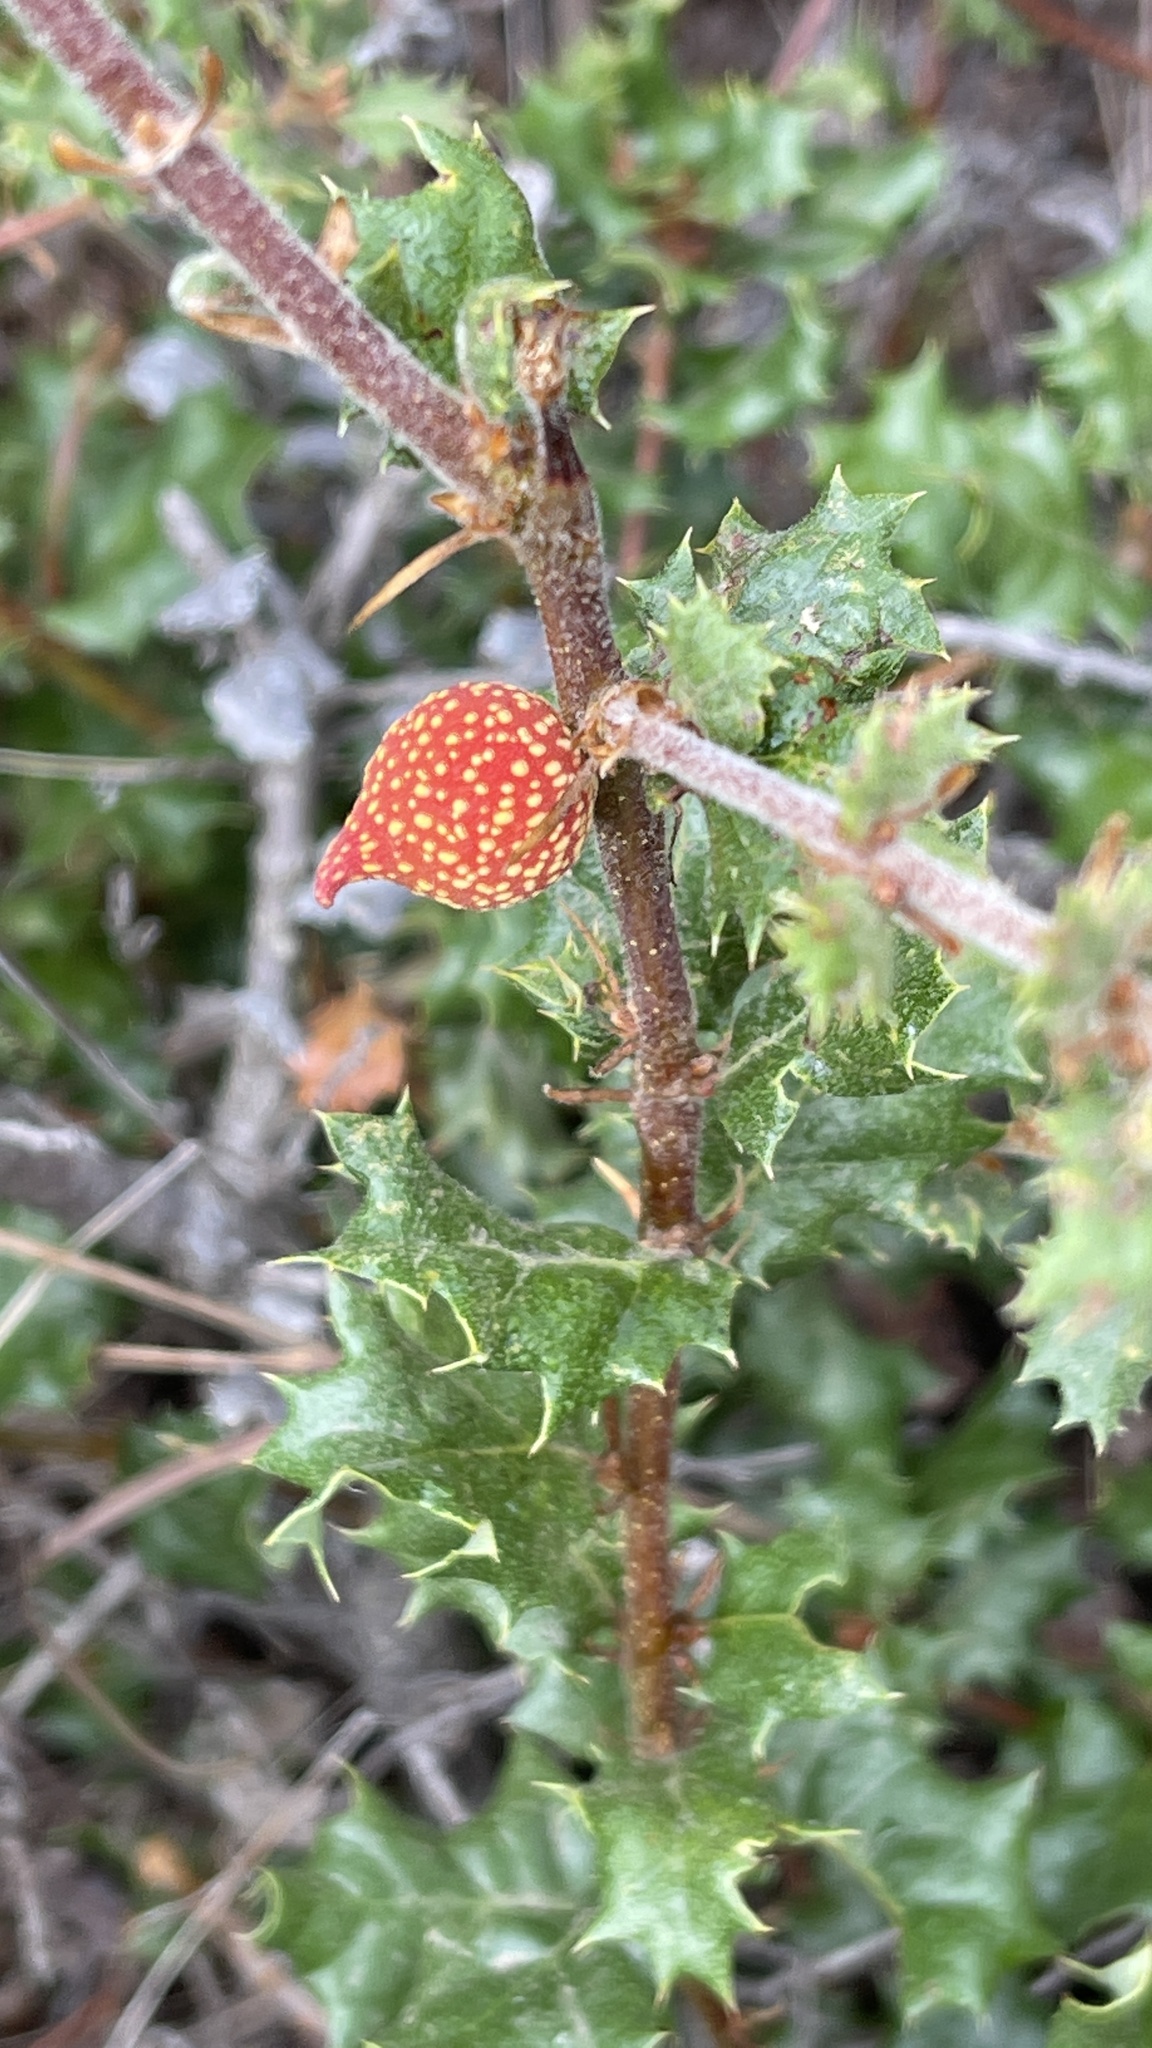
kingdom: Animalia
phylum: Arthropoda
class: Insecta
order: Hymenoptera
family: Cynipidae
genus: Burnettweldia
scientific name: Burnettweldia
